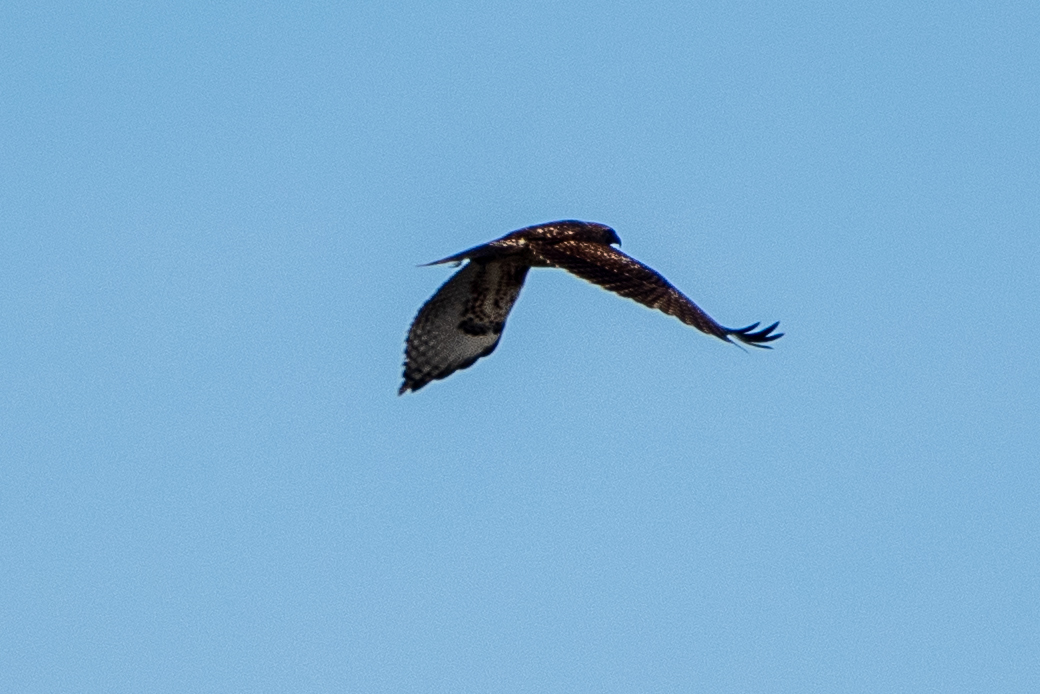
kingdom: Animalia
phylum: Chordata
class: Aves
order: Accipitriformes
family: Accipitridae
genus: Buteo
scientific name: Buteo jamaicensis
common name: Red-tailed hawk
